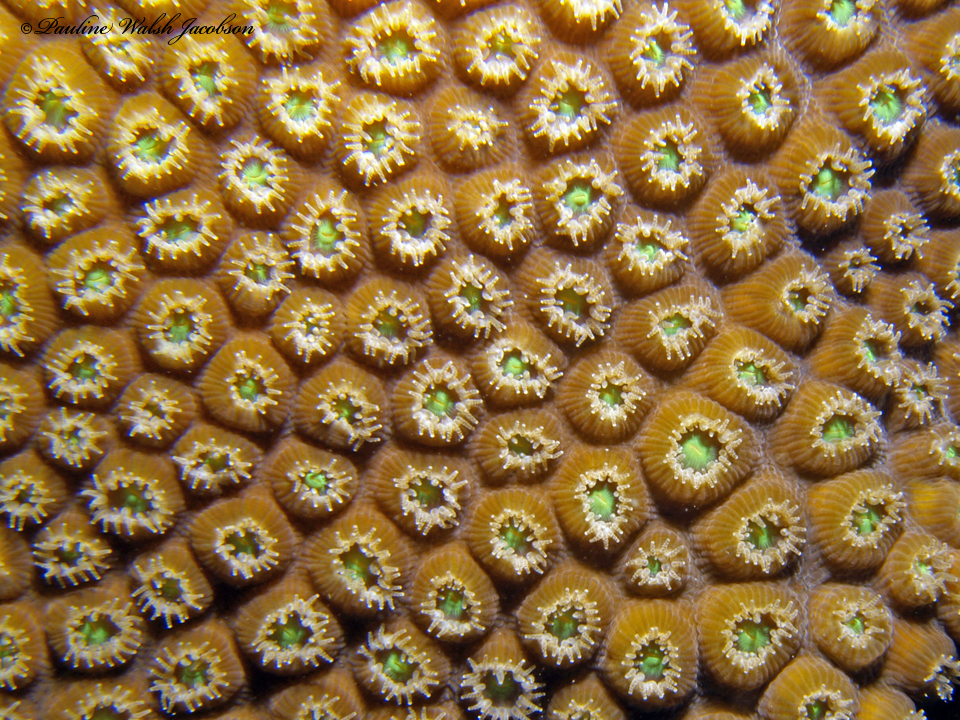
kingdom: Animalia
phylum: Cnidaria
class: Anthozoa
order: Scleractinia
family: Montastraeidae
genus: Montastraea
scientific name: Montastraea cavernosa
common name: Great star coral
